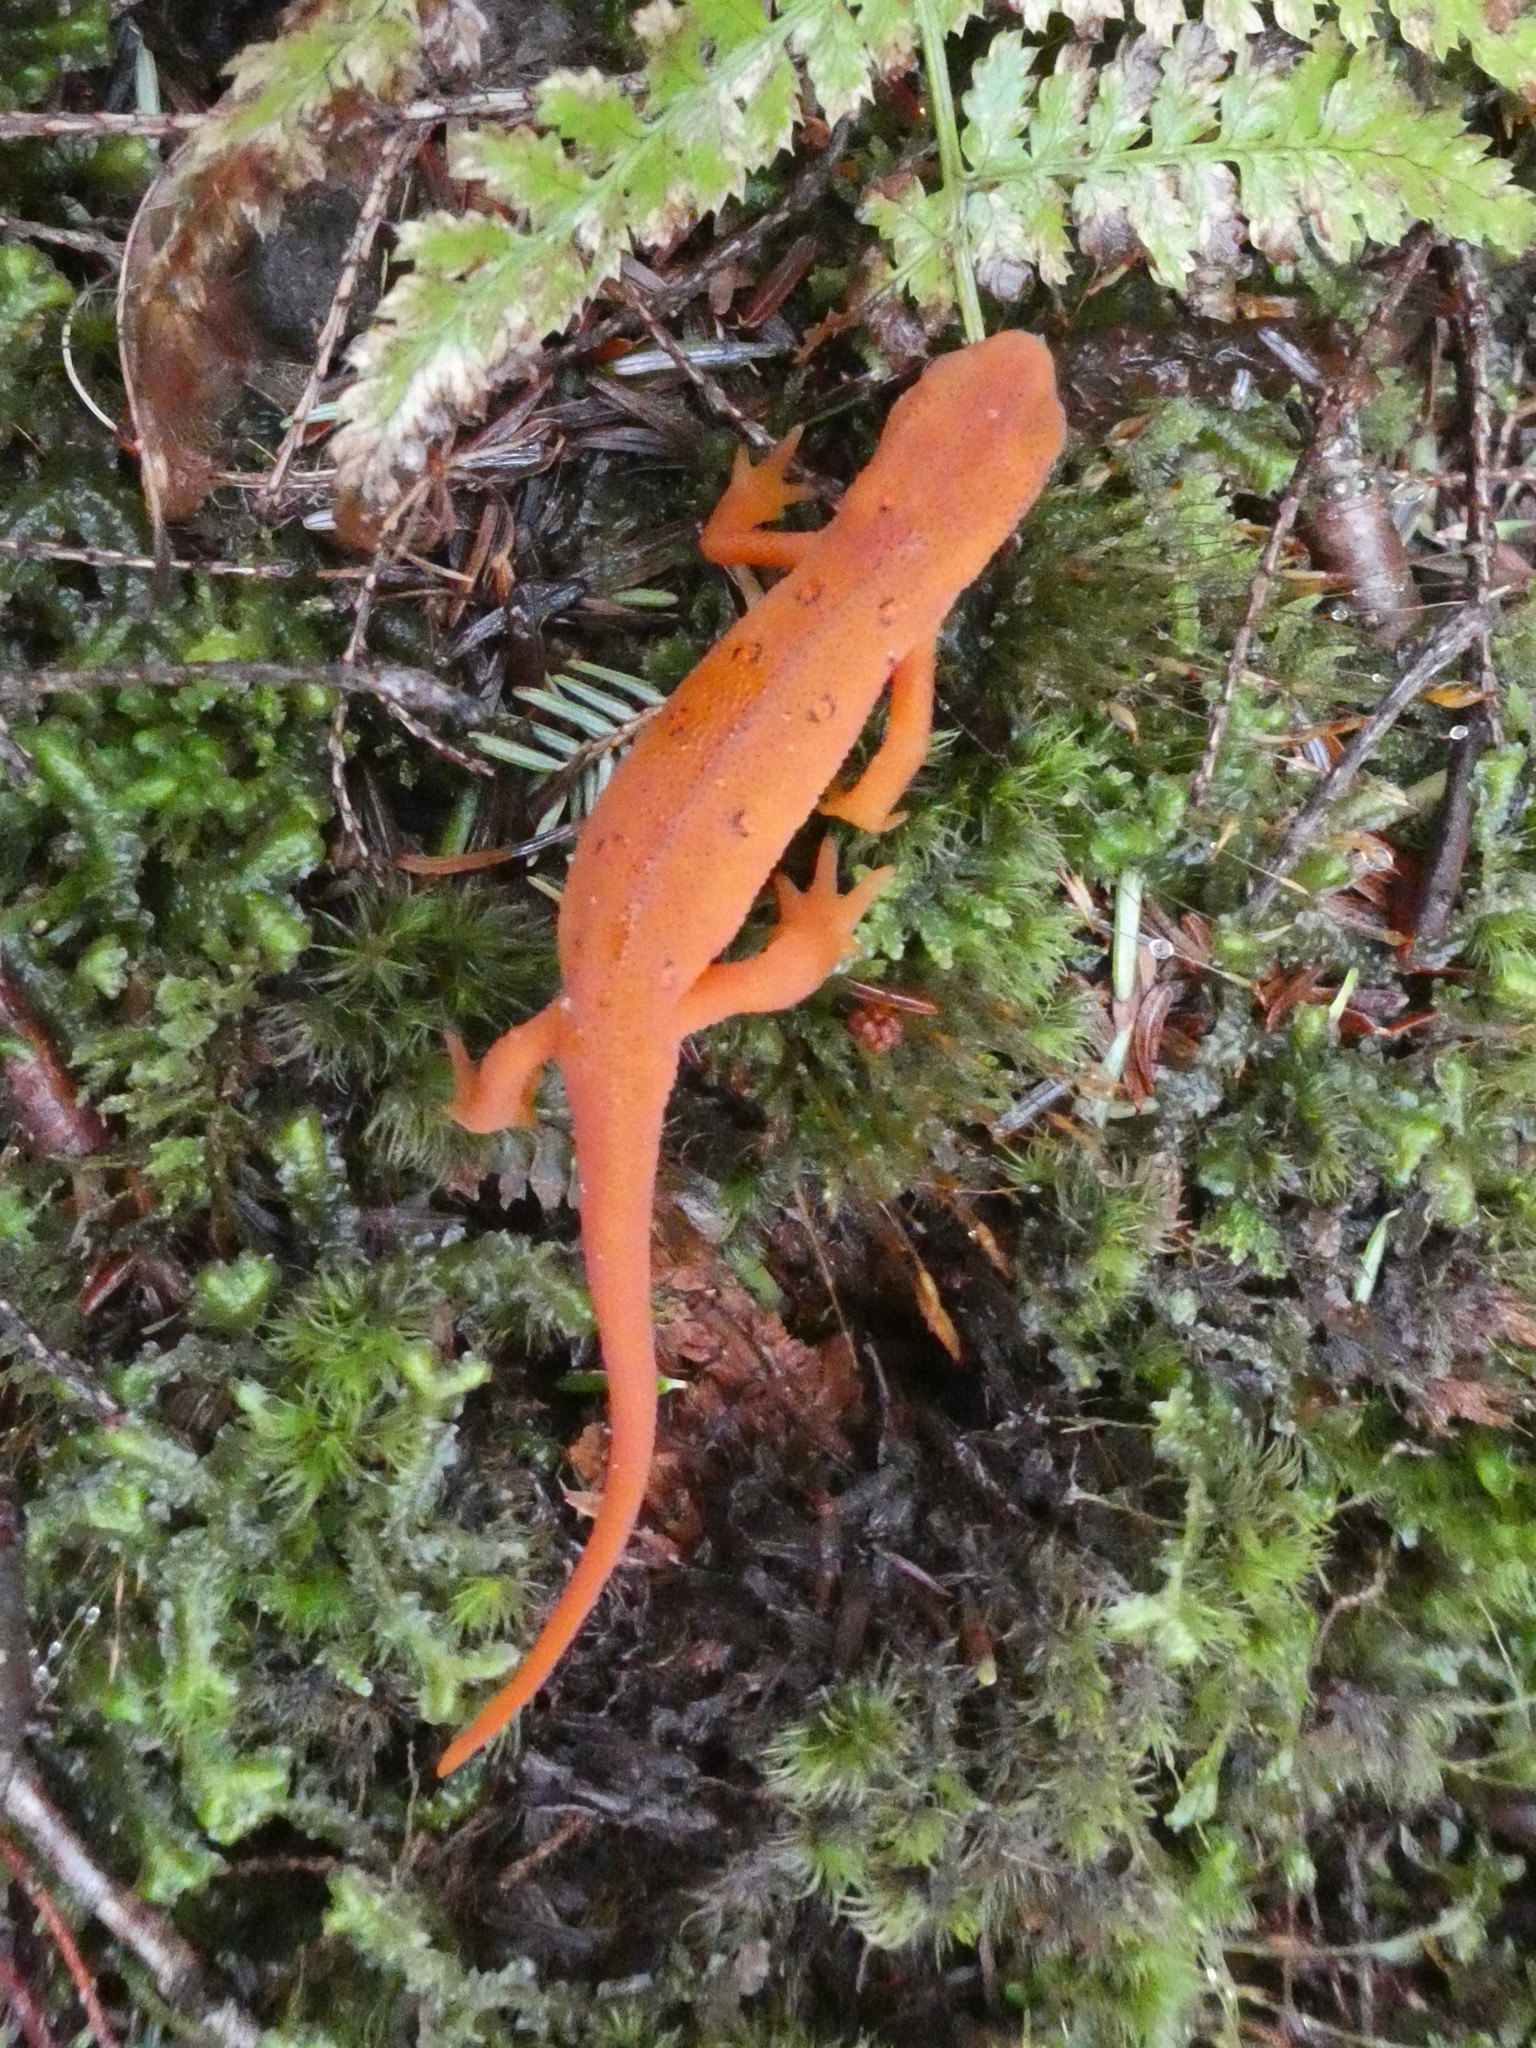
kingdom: Animalia
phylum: Chordata
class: Amphibia
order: Caudata
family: Salamandridae
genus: Notophthalmus
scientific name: Notophthalmus viridescens
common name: Eastern newt
